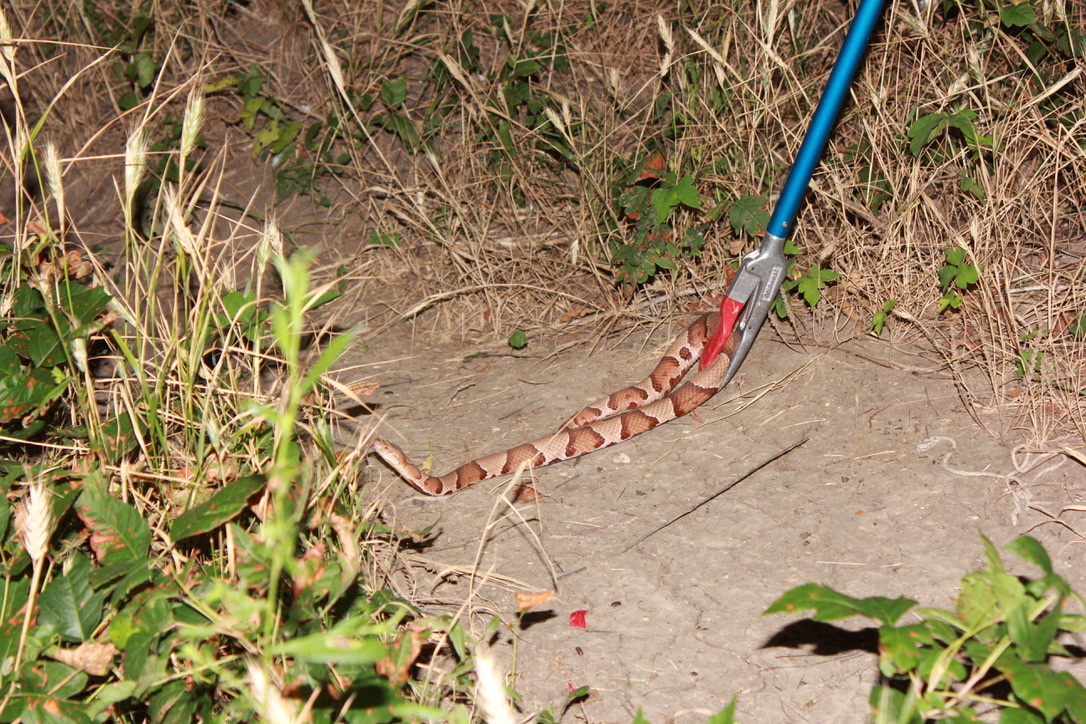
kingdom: Animalia
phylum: Chordata
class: Squamata
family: Viperidae
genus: Agkistrodon
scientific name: Agkistrodon laticinctus
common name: Broad-banded copperhead
